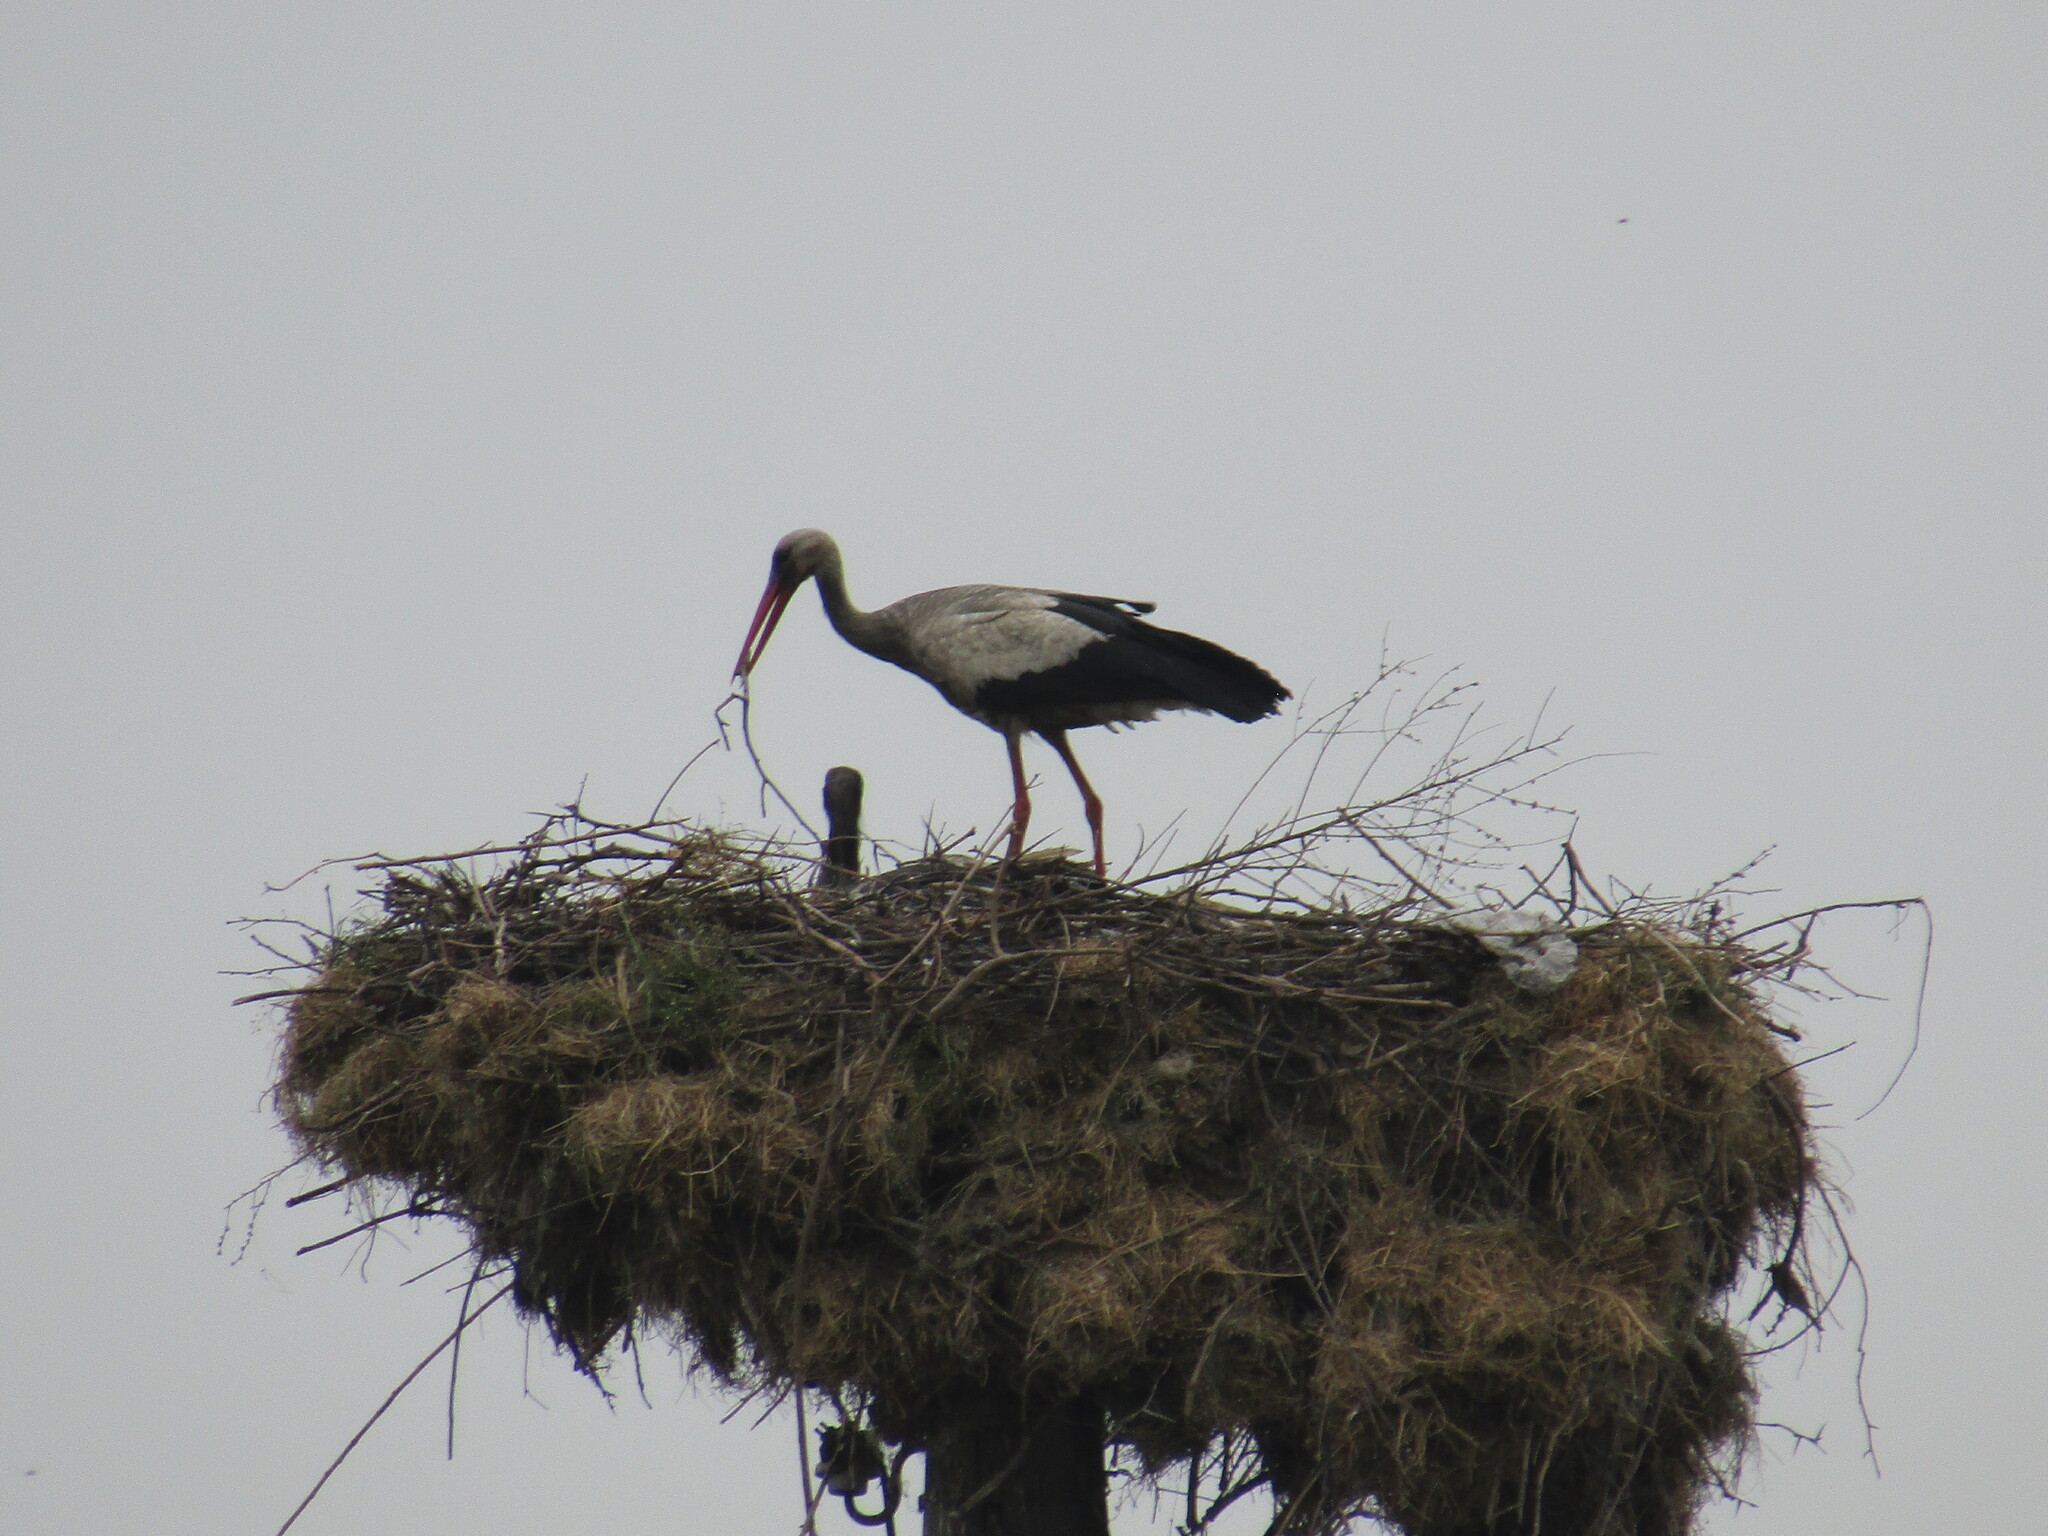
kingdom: Animalia
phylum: Chordata
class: Aves
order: Ciconiiformes
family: Ciconiidae
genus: Ciconia
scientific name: Ciconia ciconia
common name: White stork
